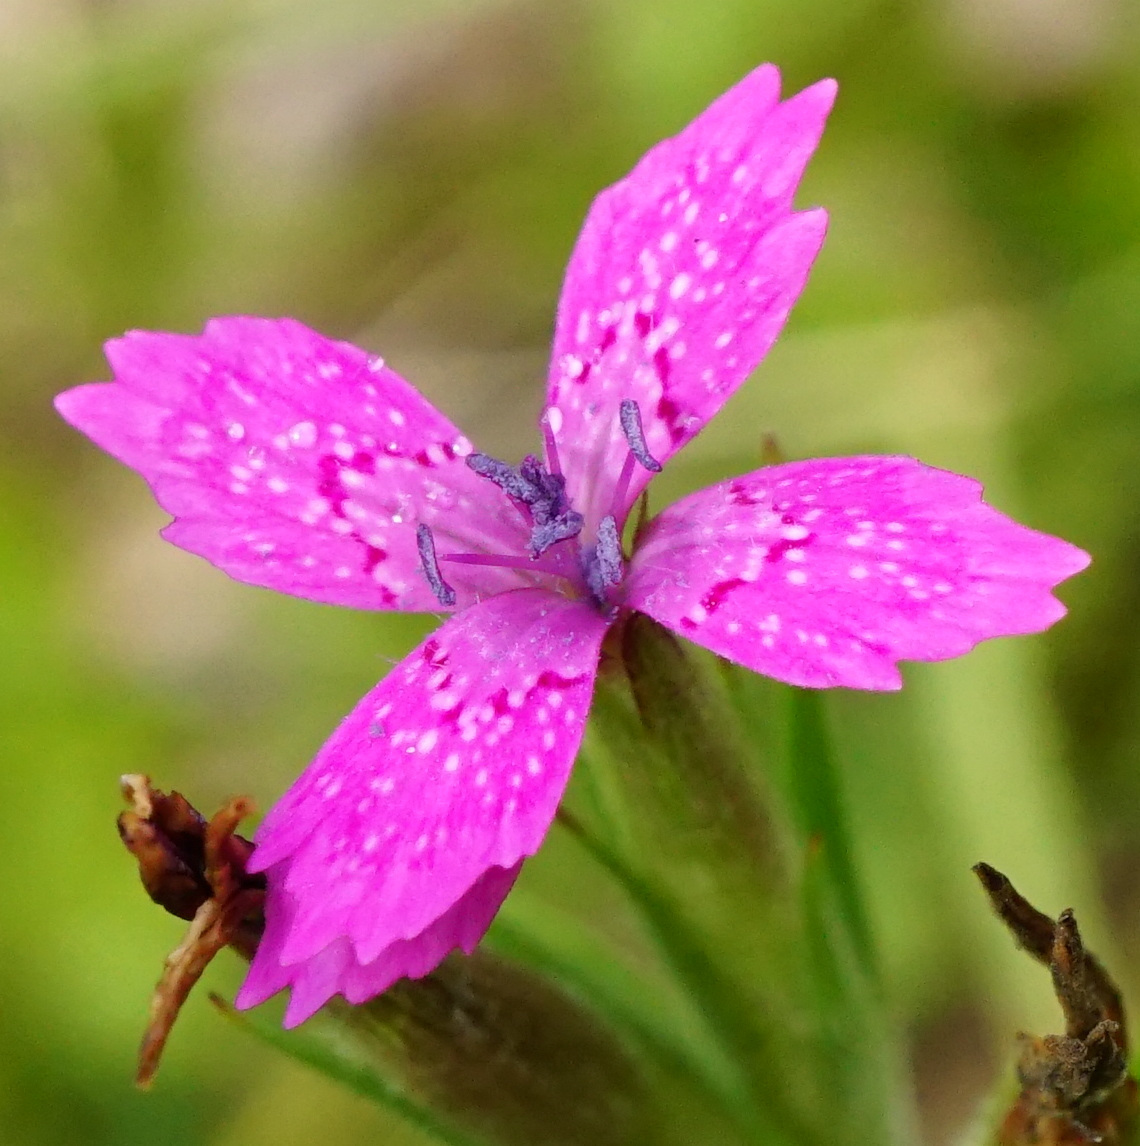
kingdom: Plantae
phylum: Tracheophyta
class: Magnoliopsida
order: Caryophyllales
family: Caryophyllaceae
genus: Dianthus
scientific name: Dianthus armeria
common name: Deptford pink
